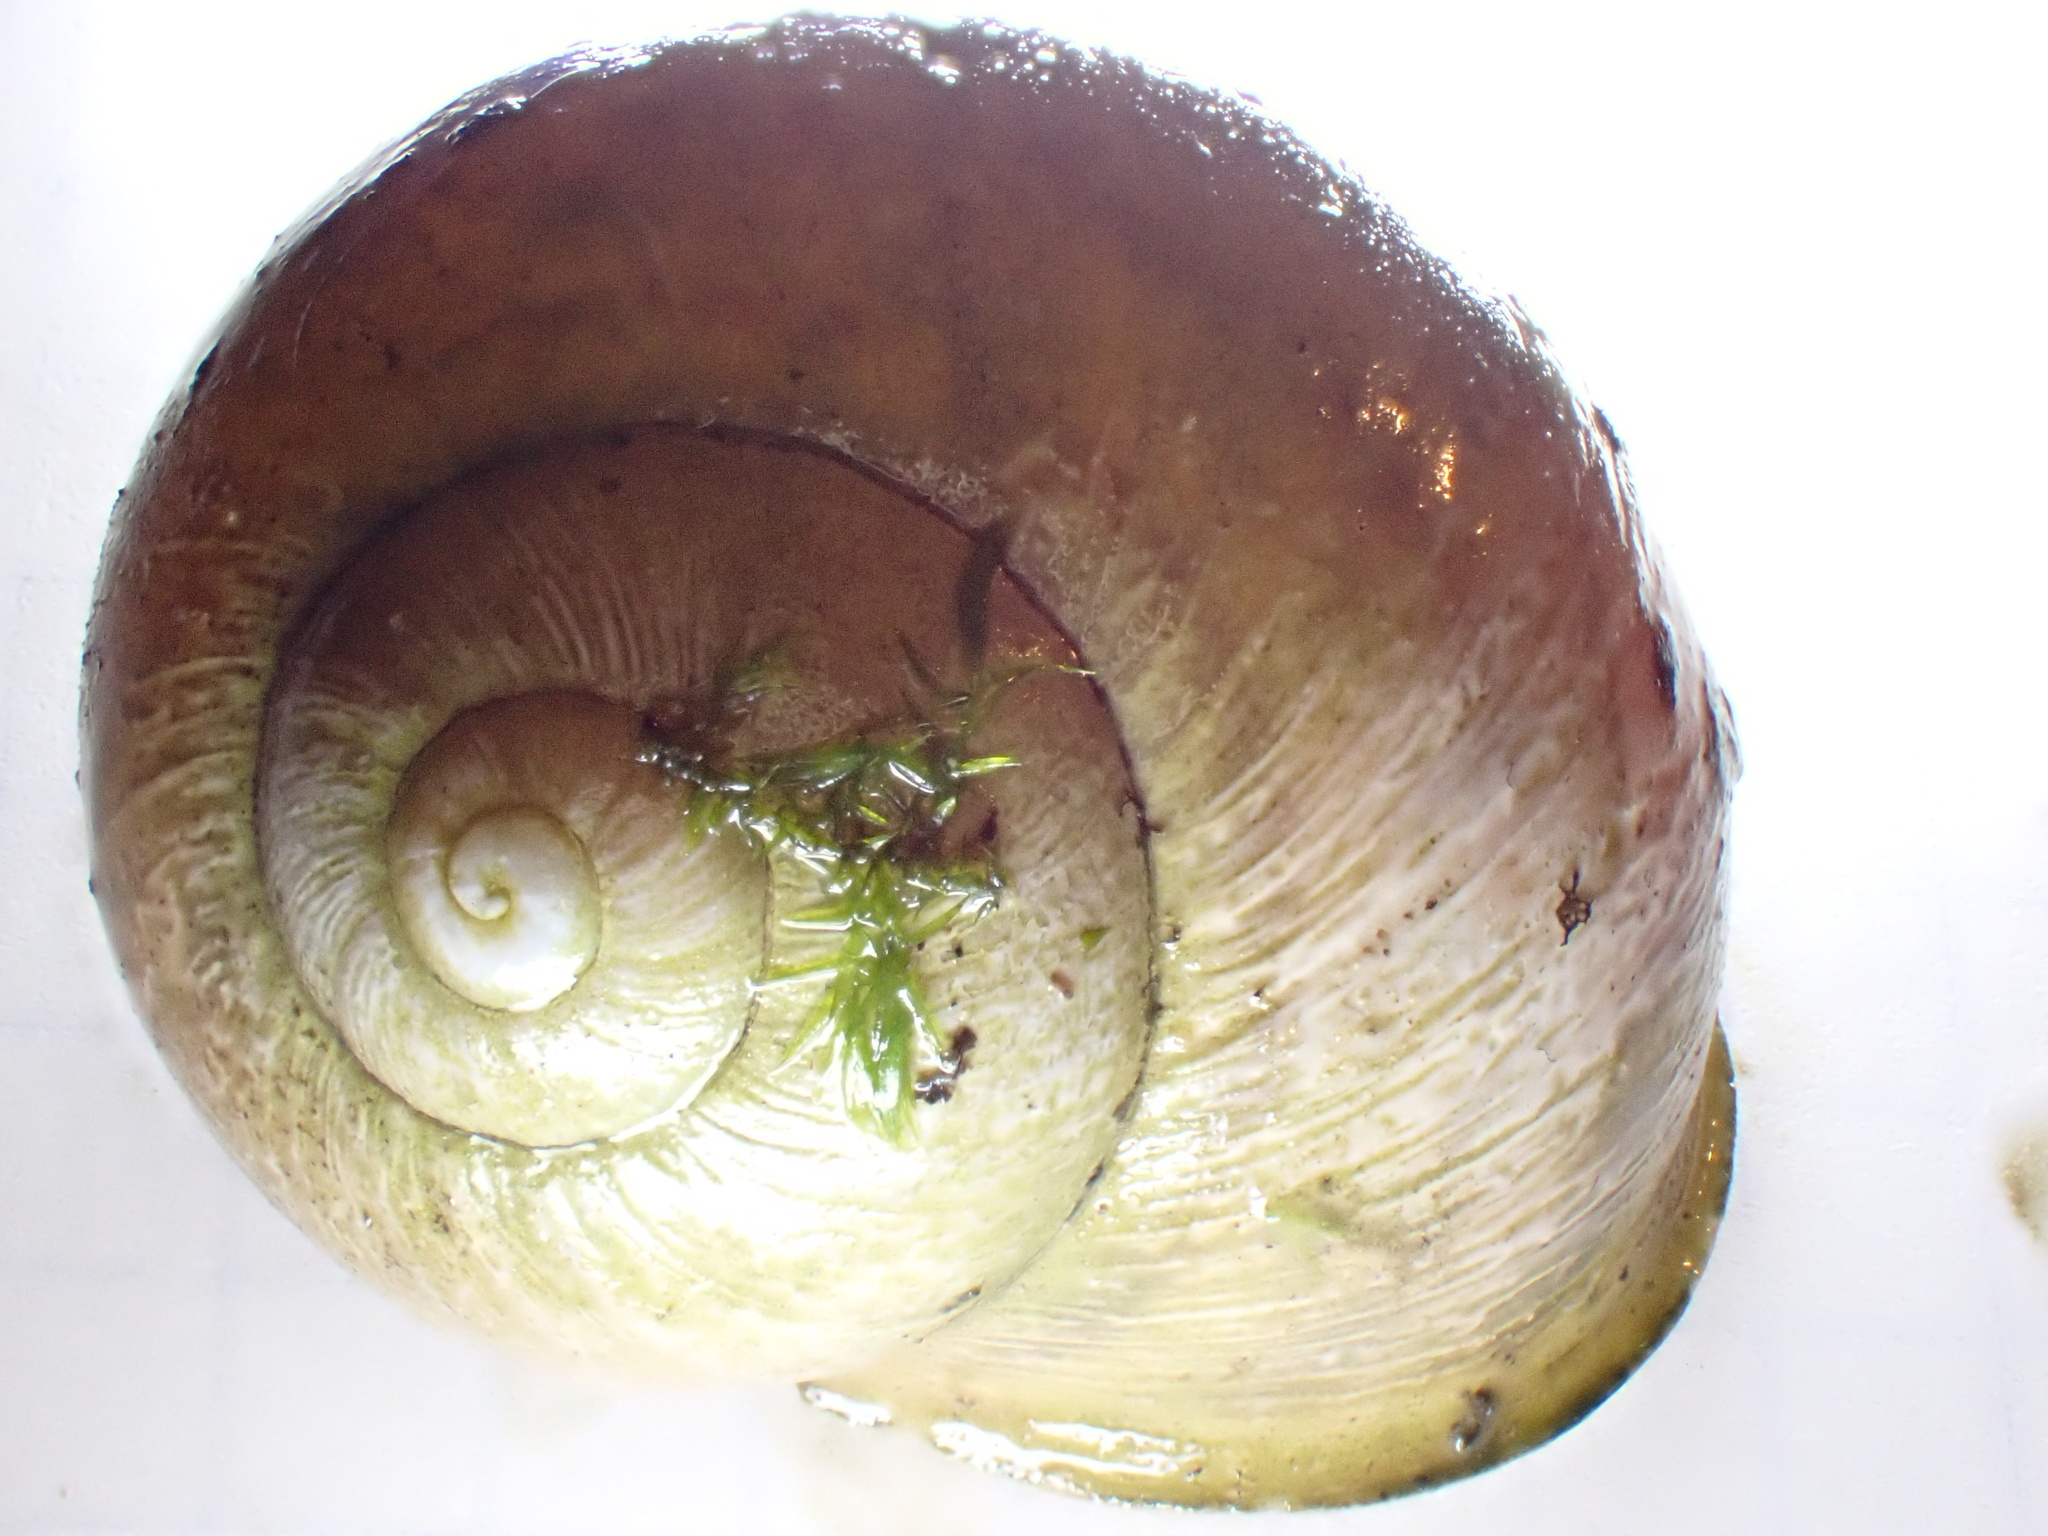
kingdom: Animalia
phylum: Mollusca
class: Gastropoda
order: Stylommatophora
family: Helicidae
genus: Cornu
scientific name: Cornu aspersum
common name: Brown garden snail
